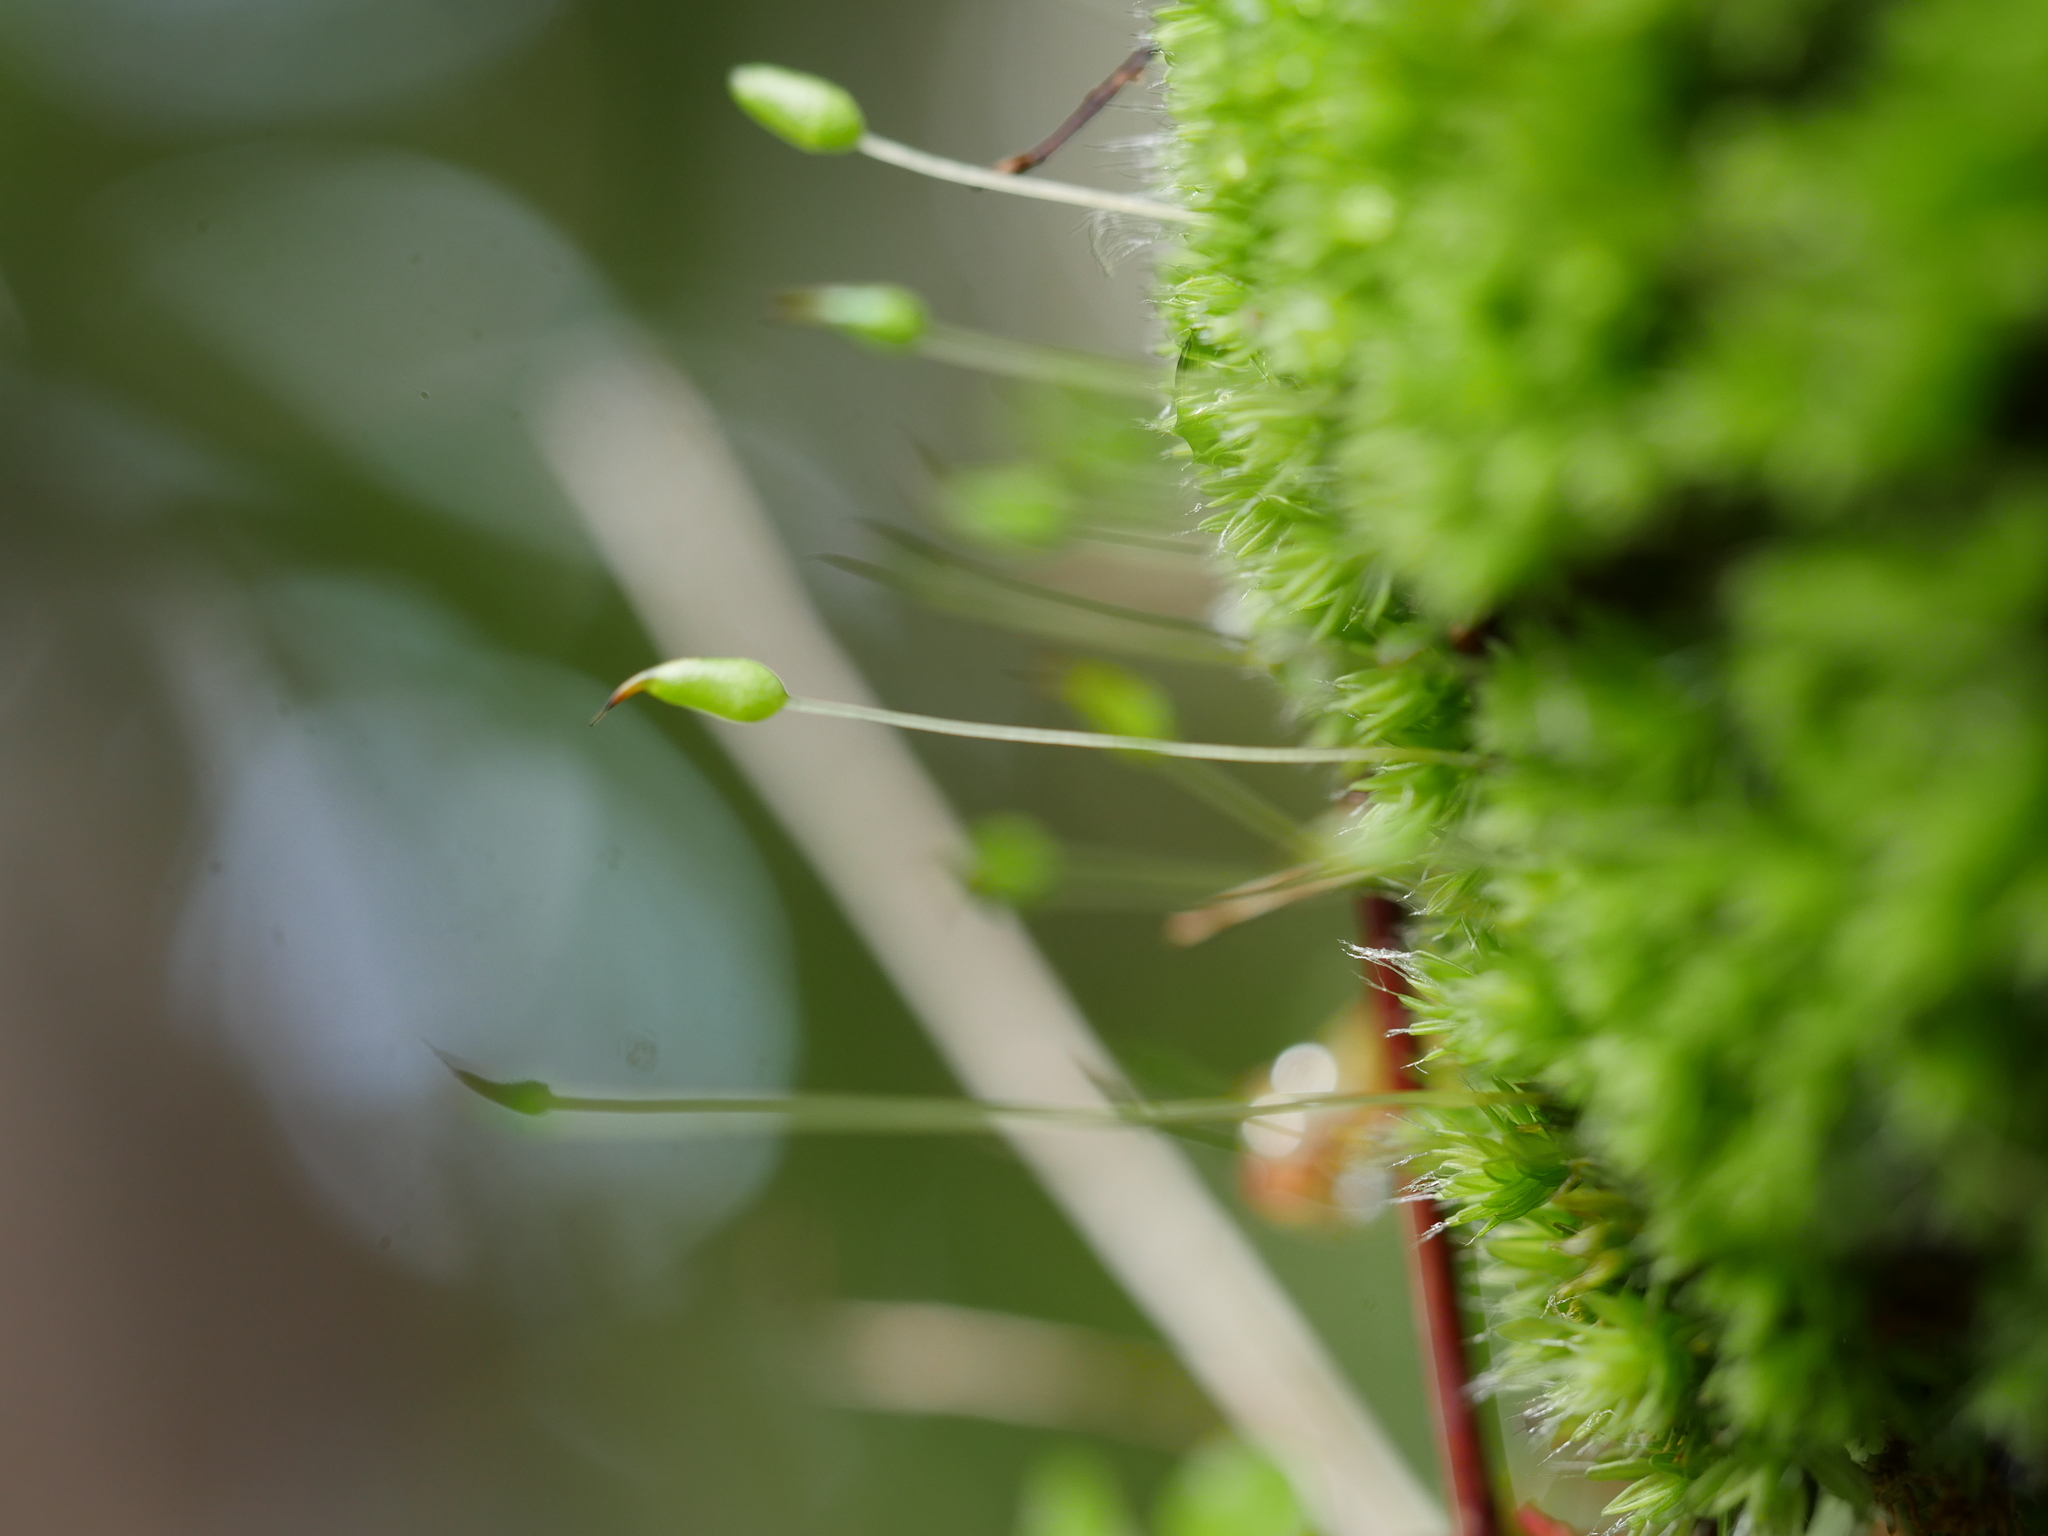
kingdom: Plantae
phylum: Bryophyta
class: Bryopsida
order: Bryales
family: Leptostomataceae
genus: Leptostomum
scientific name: Leptostomum macrocarpon
